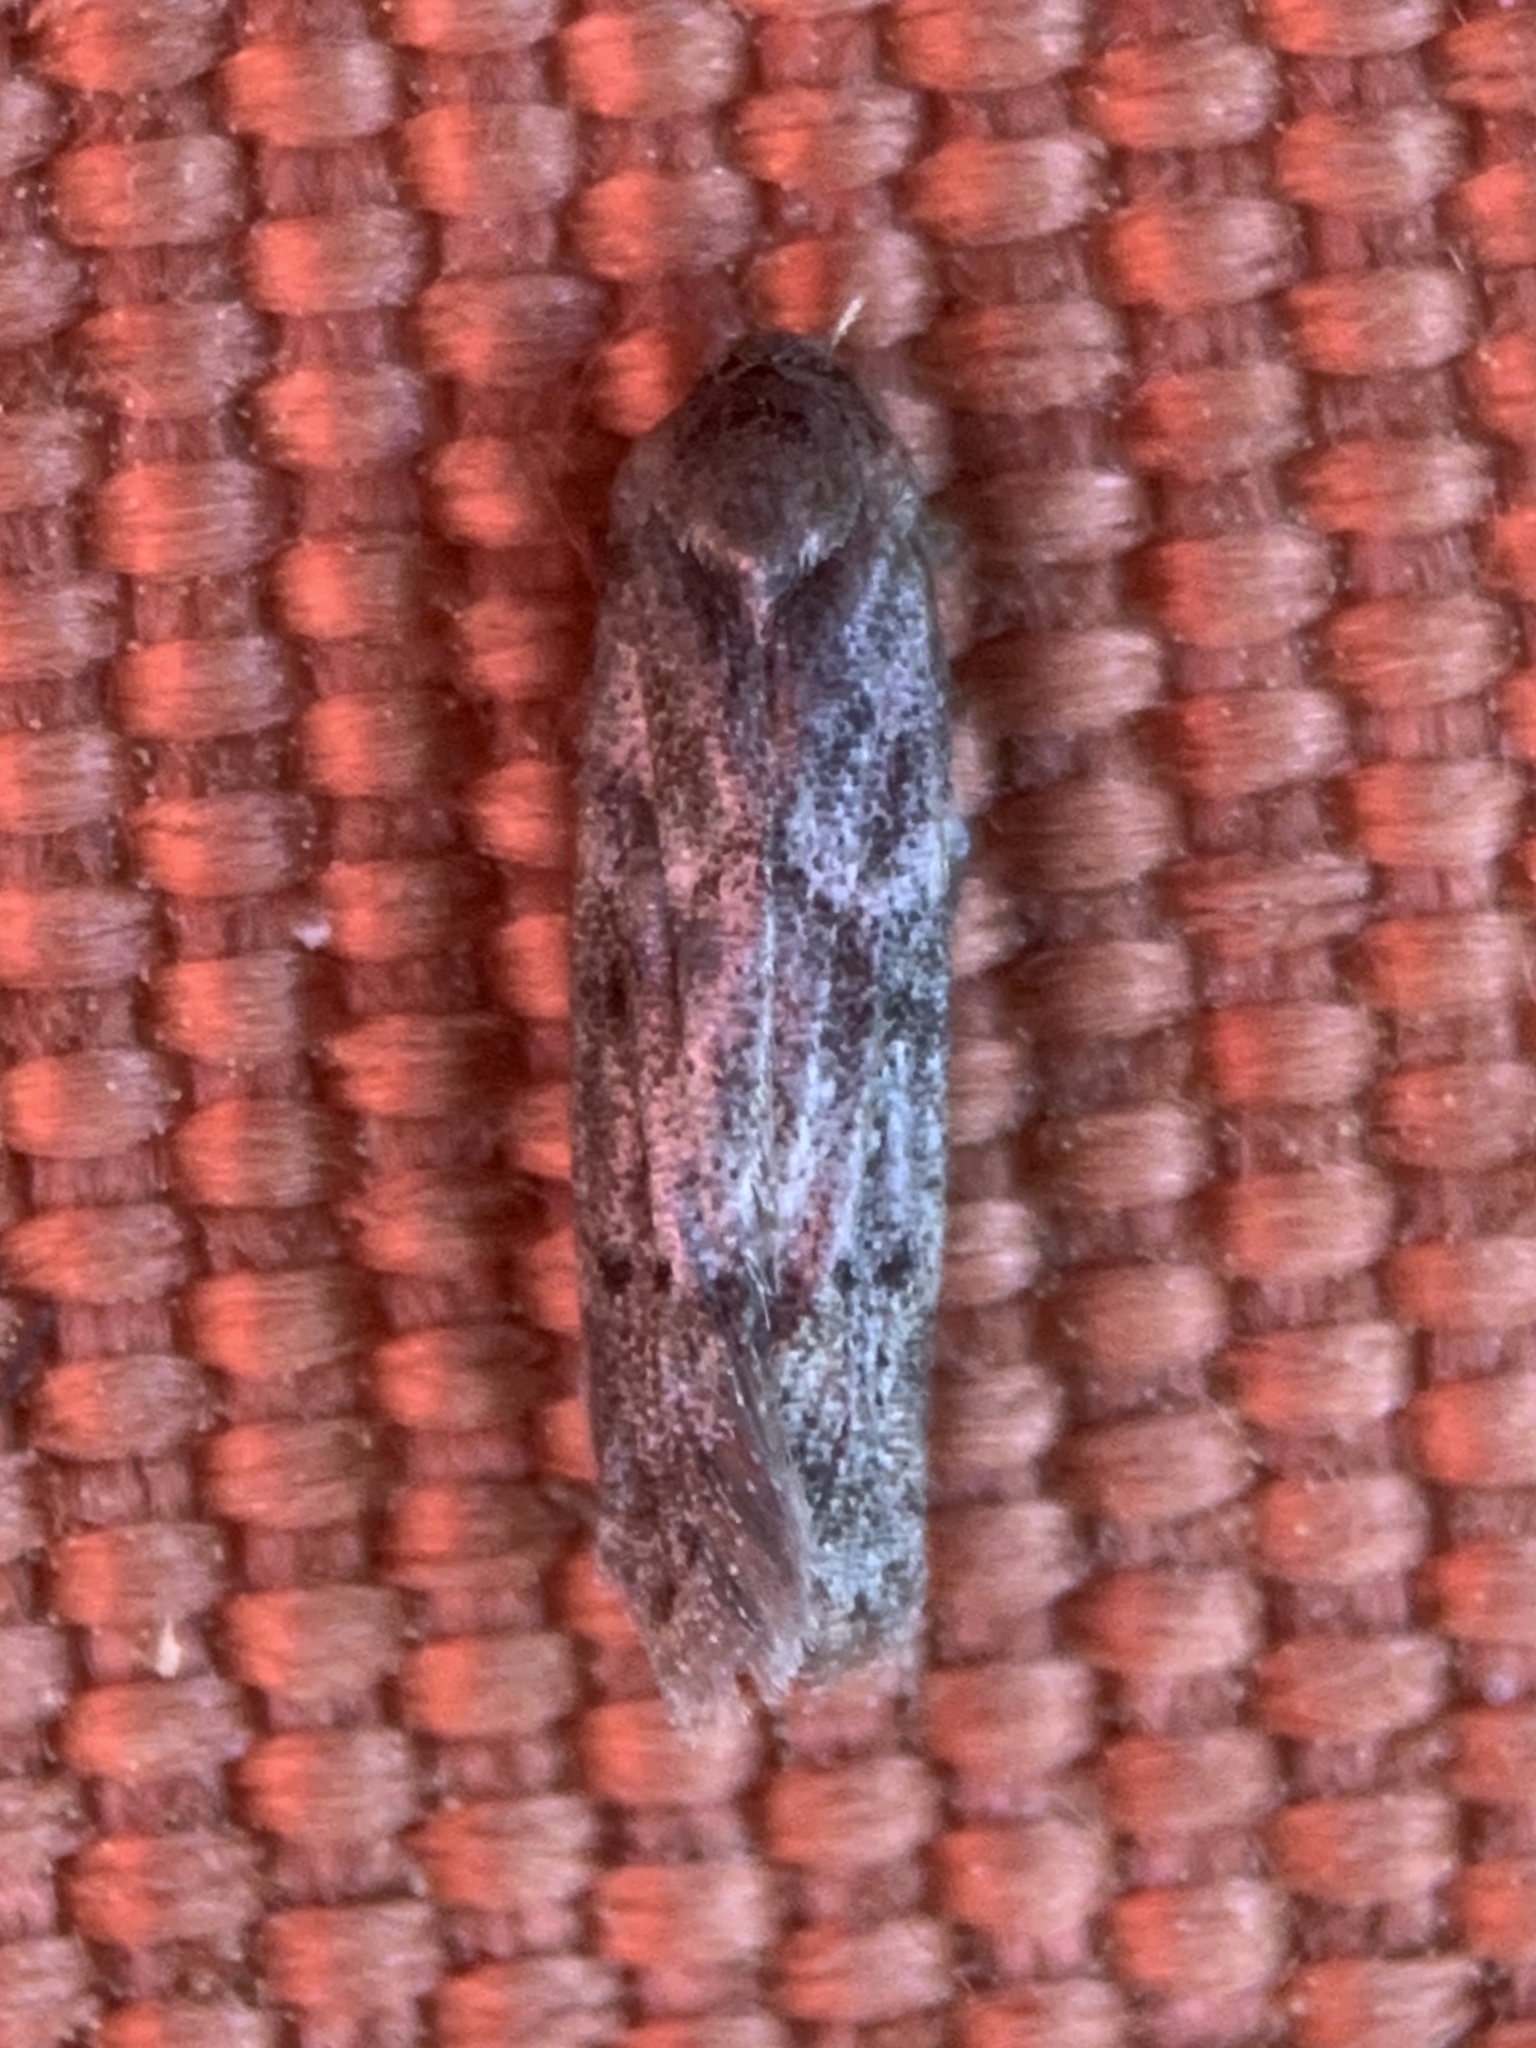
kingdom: Animalia
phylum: Arthropoda
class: Insecta
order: Lepidoptera
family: Blastobasidae
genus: Blastobasis
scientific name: Blastobasis glandulella
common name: Acorn moth
